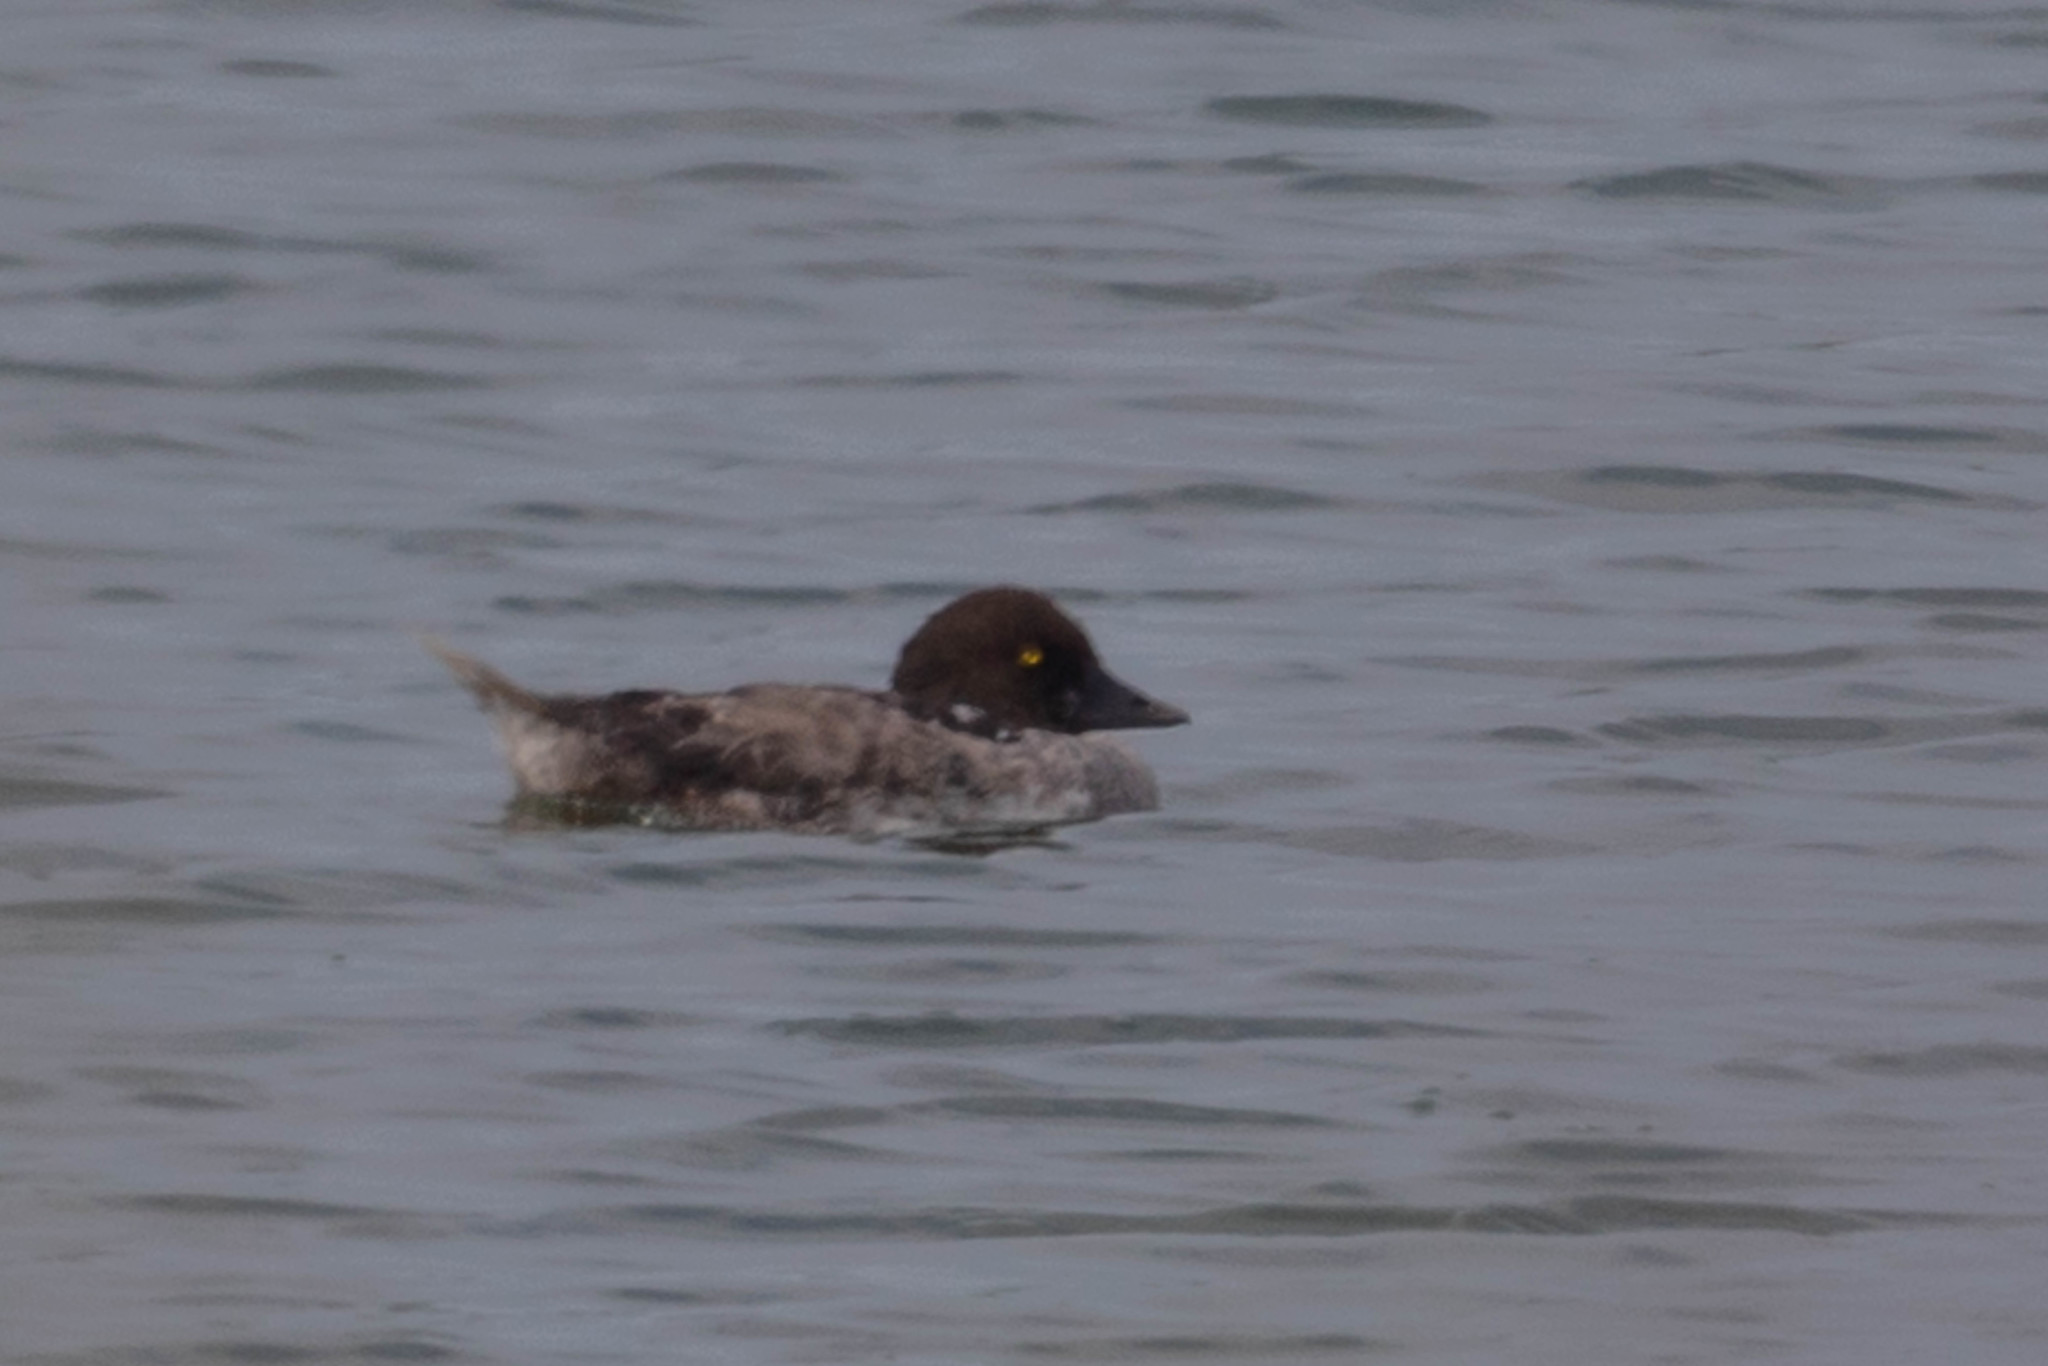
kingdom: Animalia
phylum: Chordata
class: Aves
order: Anseriformes
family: Anatidae
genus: Bucephala
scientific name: Bucephala clangula
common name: Common goldeneye
